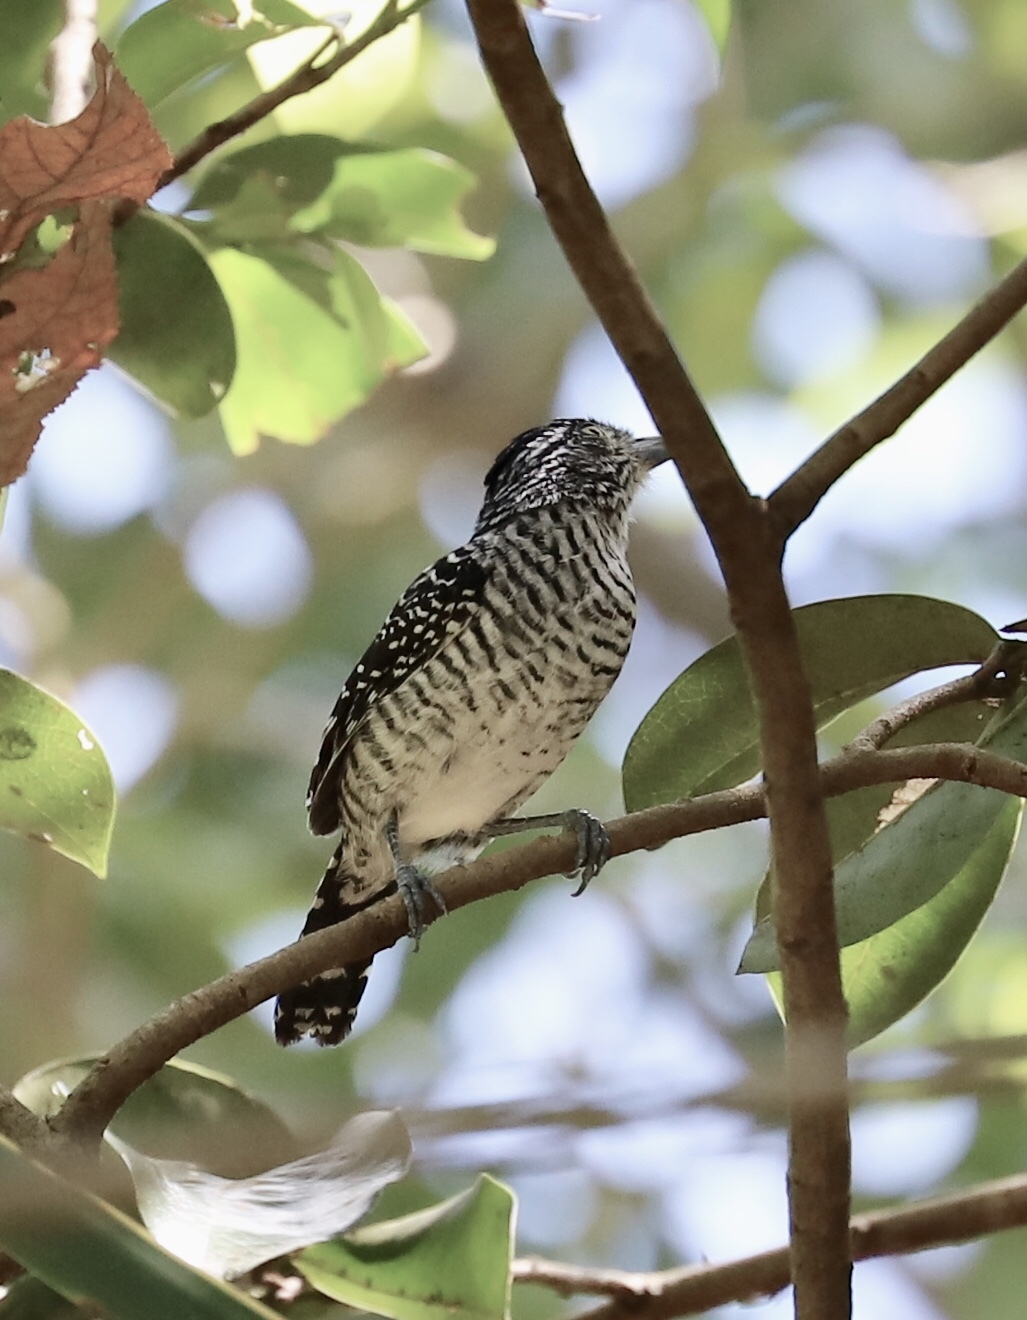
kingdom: Animalia
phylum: Chordata
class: Aves
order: Passeriformes
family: Thamnophilidae
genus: Thamnophilus
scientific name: Thamnophilus doliatus
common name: Barred antshrike
